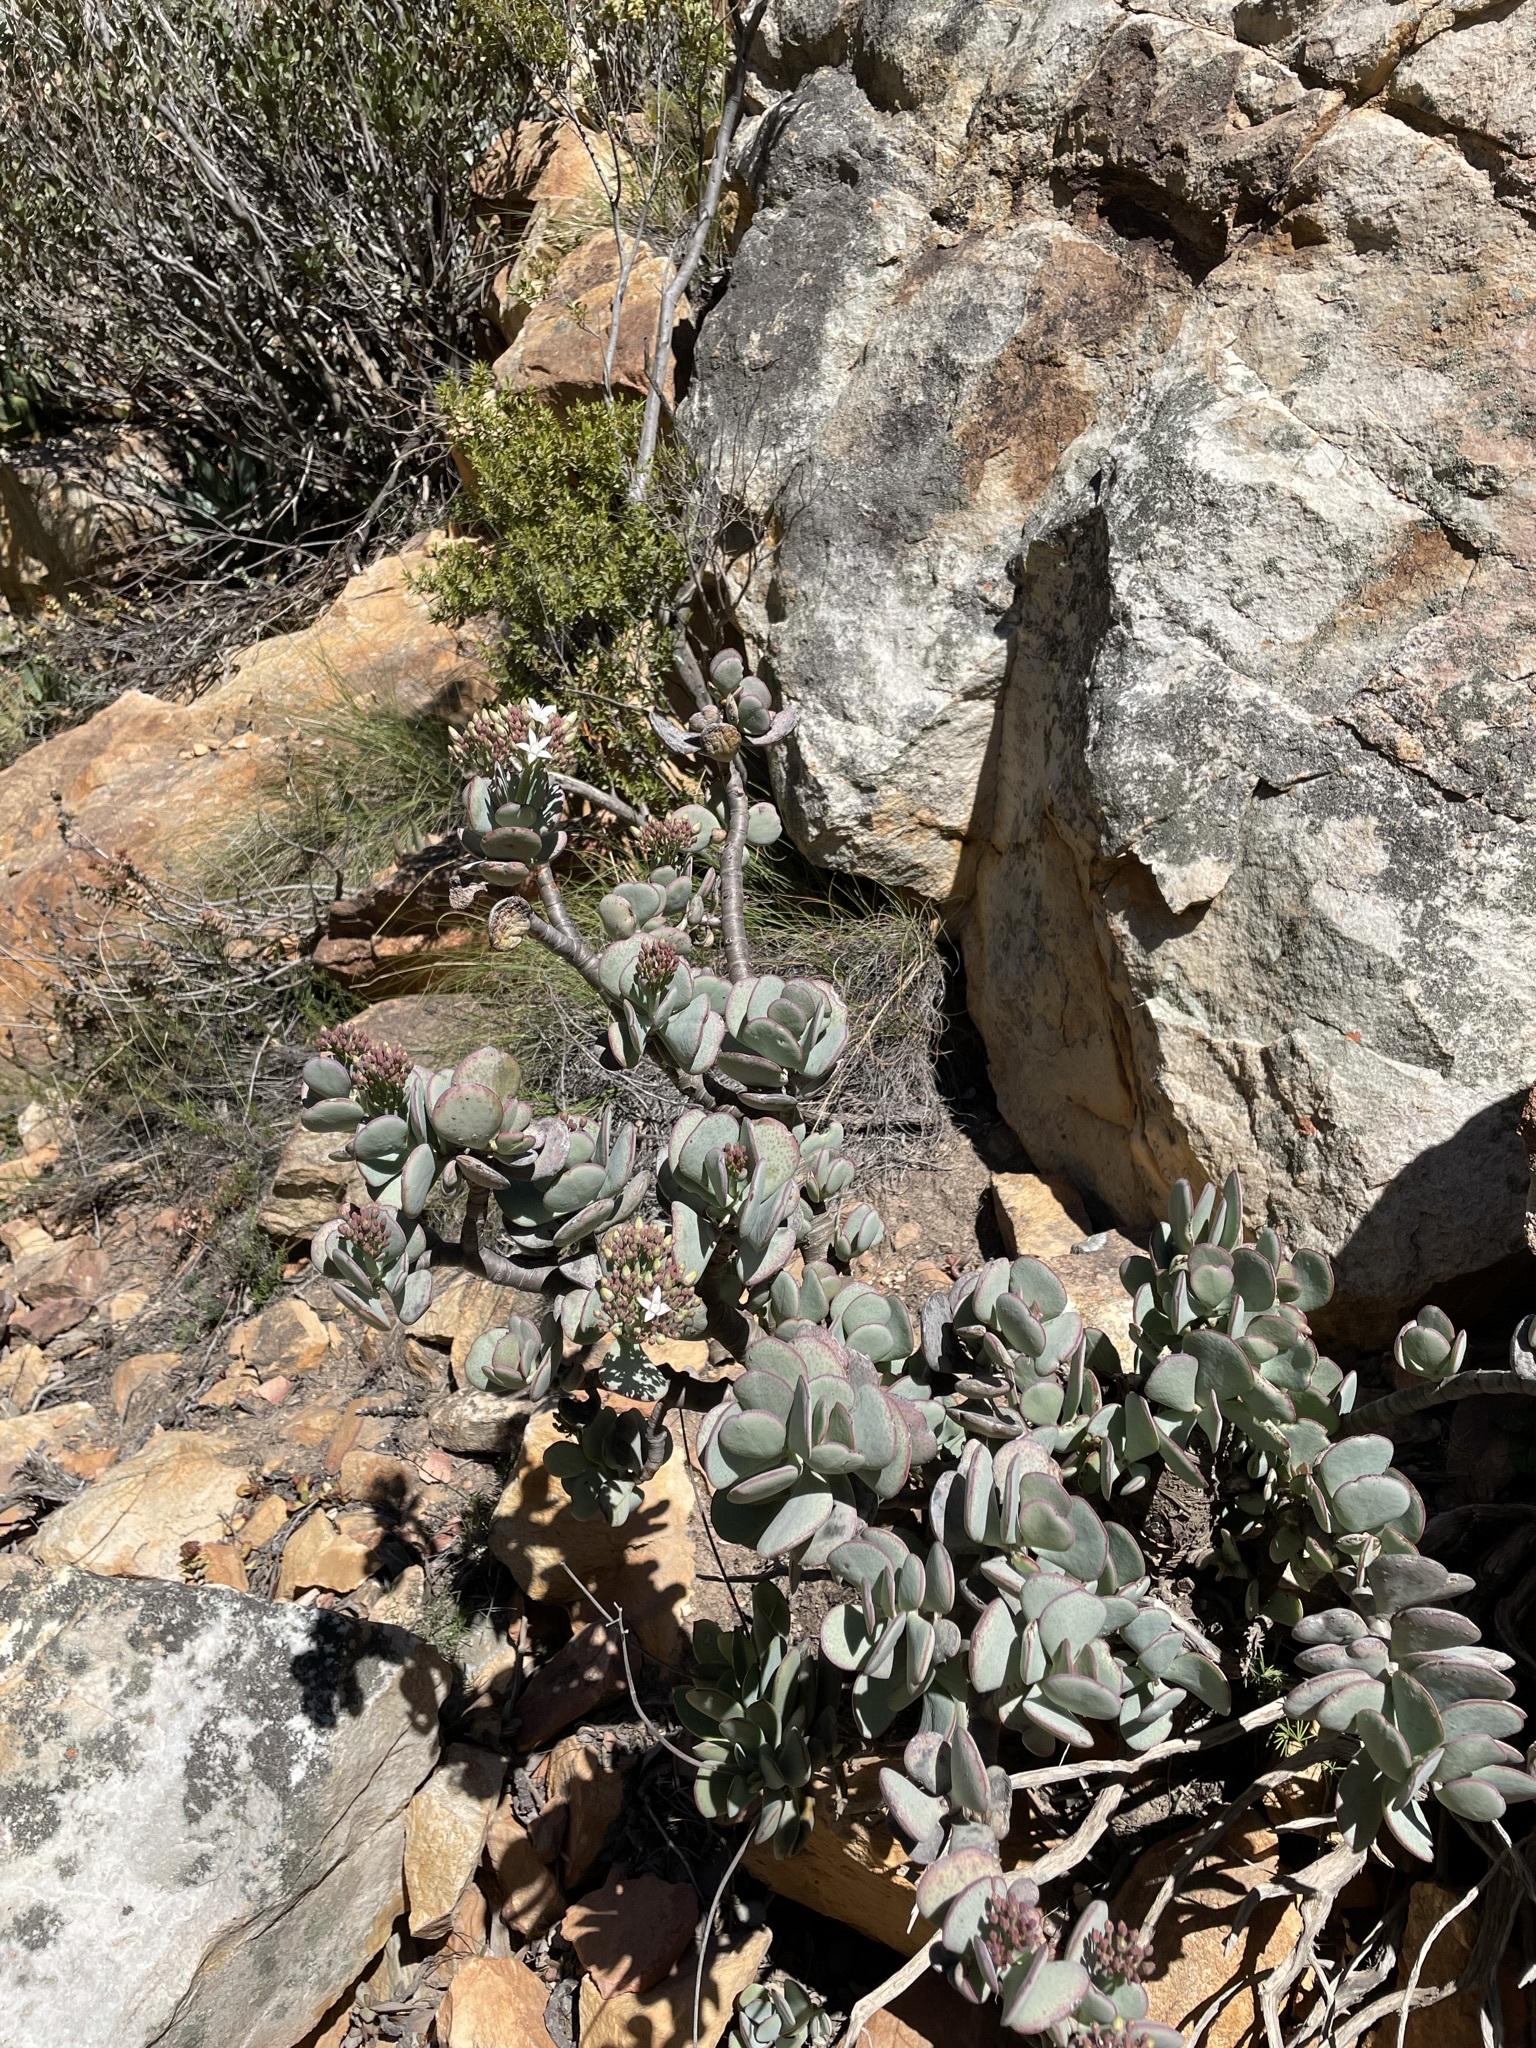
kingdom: Plantae
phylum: Tracheophyta
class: Magnoliopsida
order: Saxifragales
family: Crassulaceae
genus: Crassula
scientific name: Crassula arborescens
